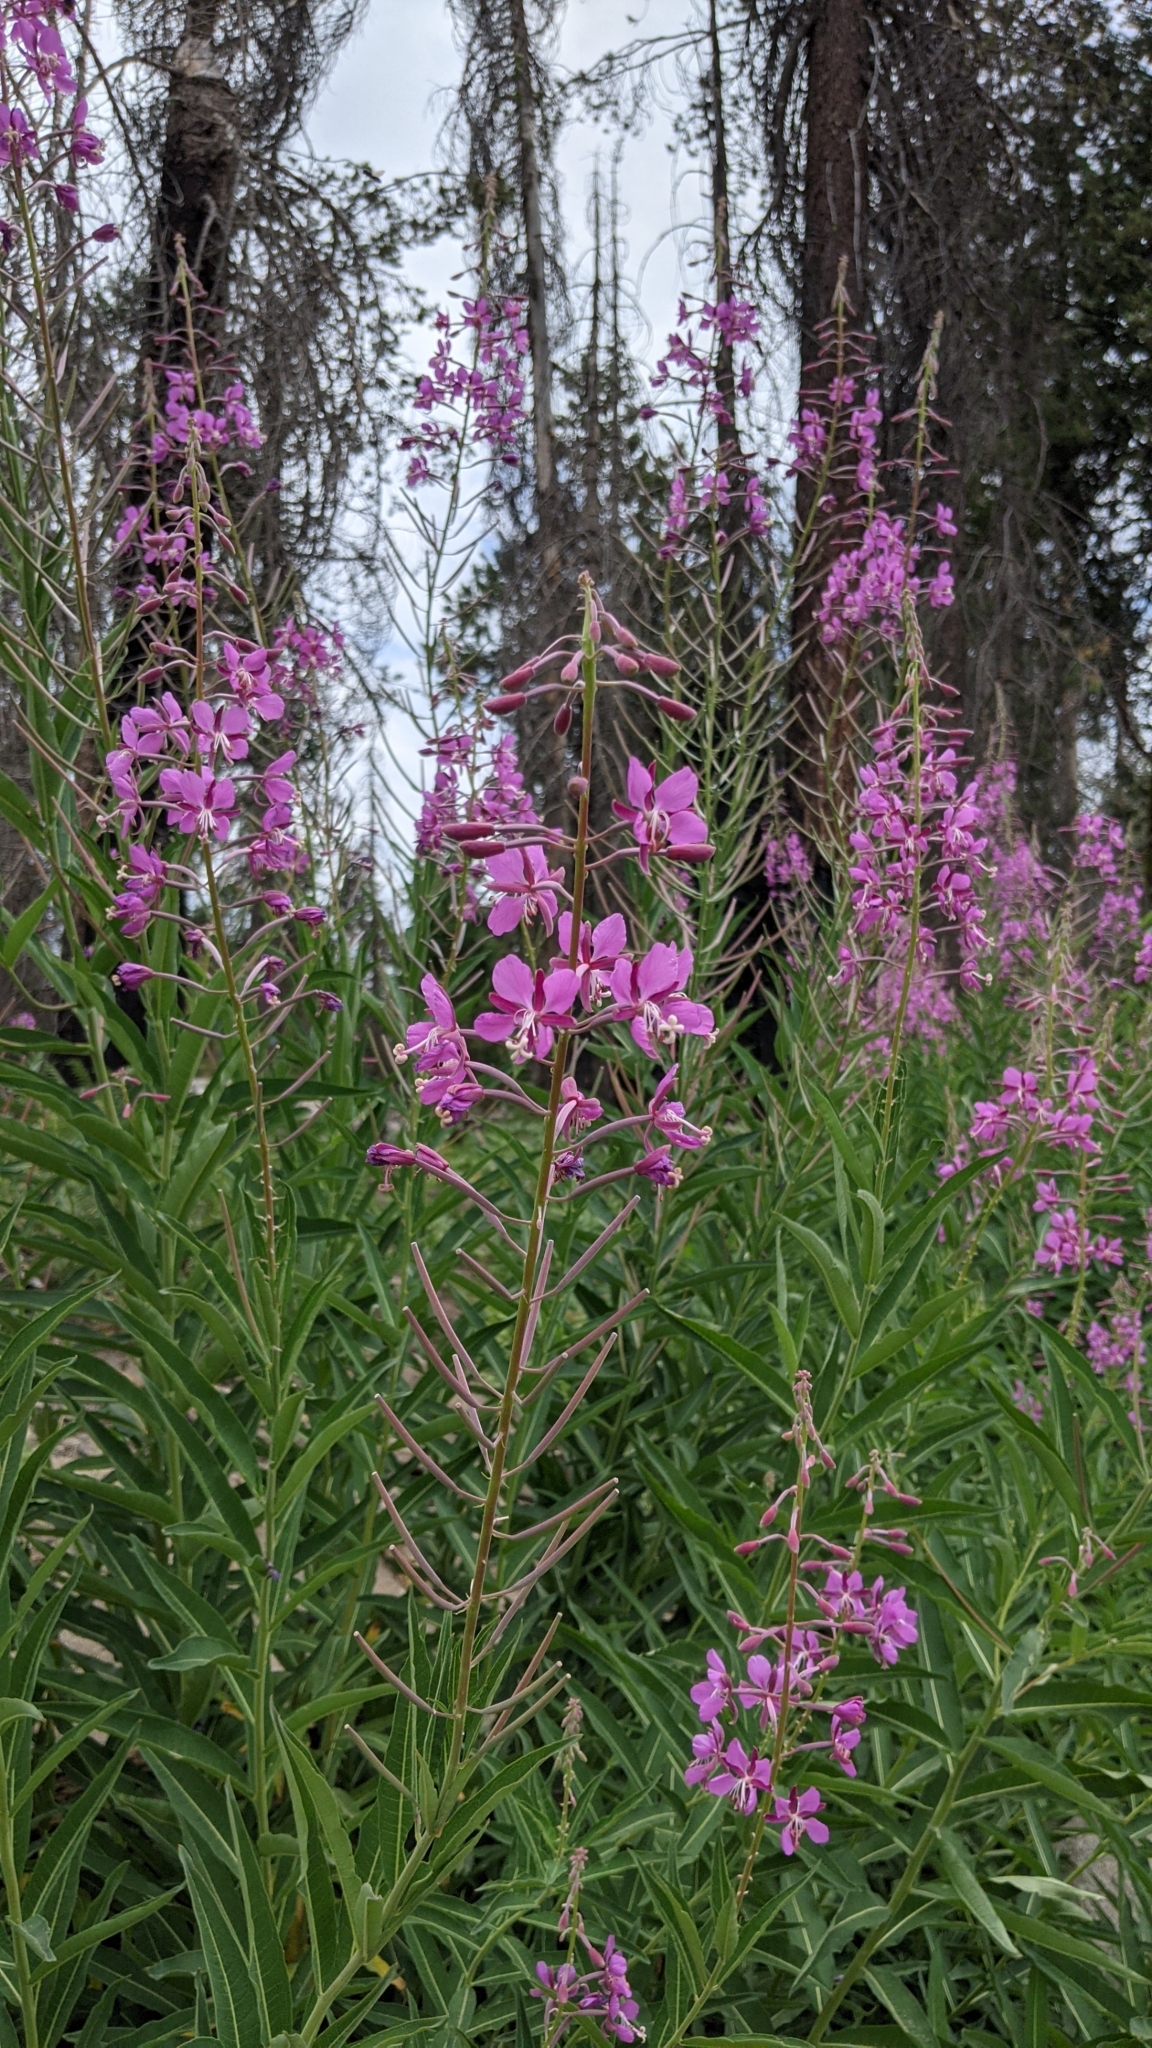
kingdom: Plantae
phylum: Tracheophyta
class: Magnoliopsida
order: Myrtales
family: Onagraceae
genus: Chamaenerion
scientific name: Chamaenerion angustifolium
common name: Fireweed
